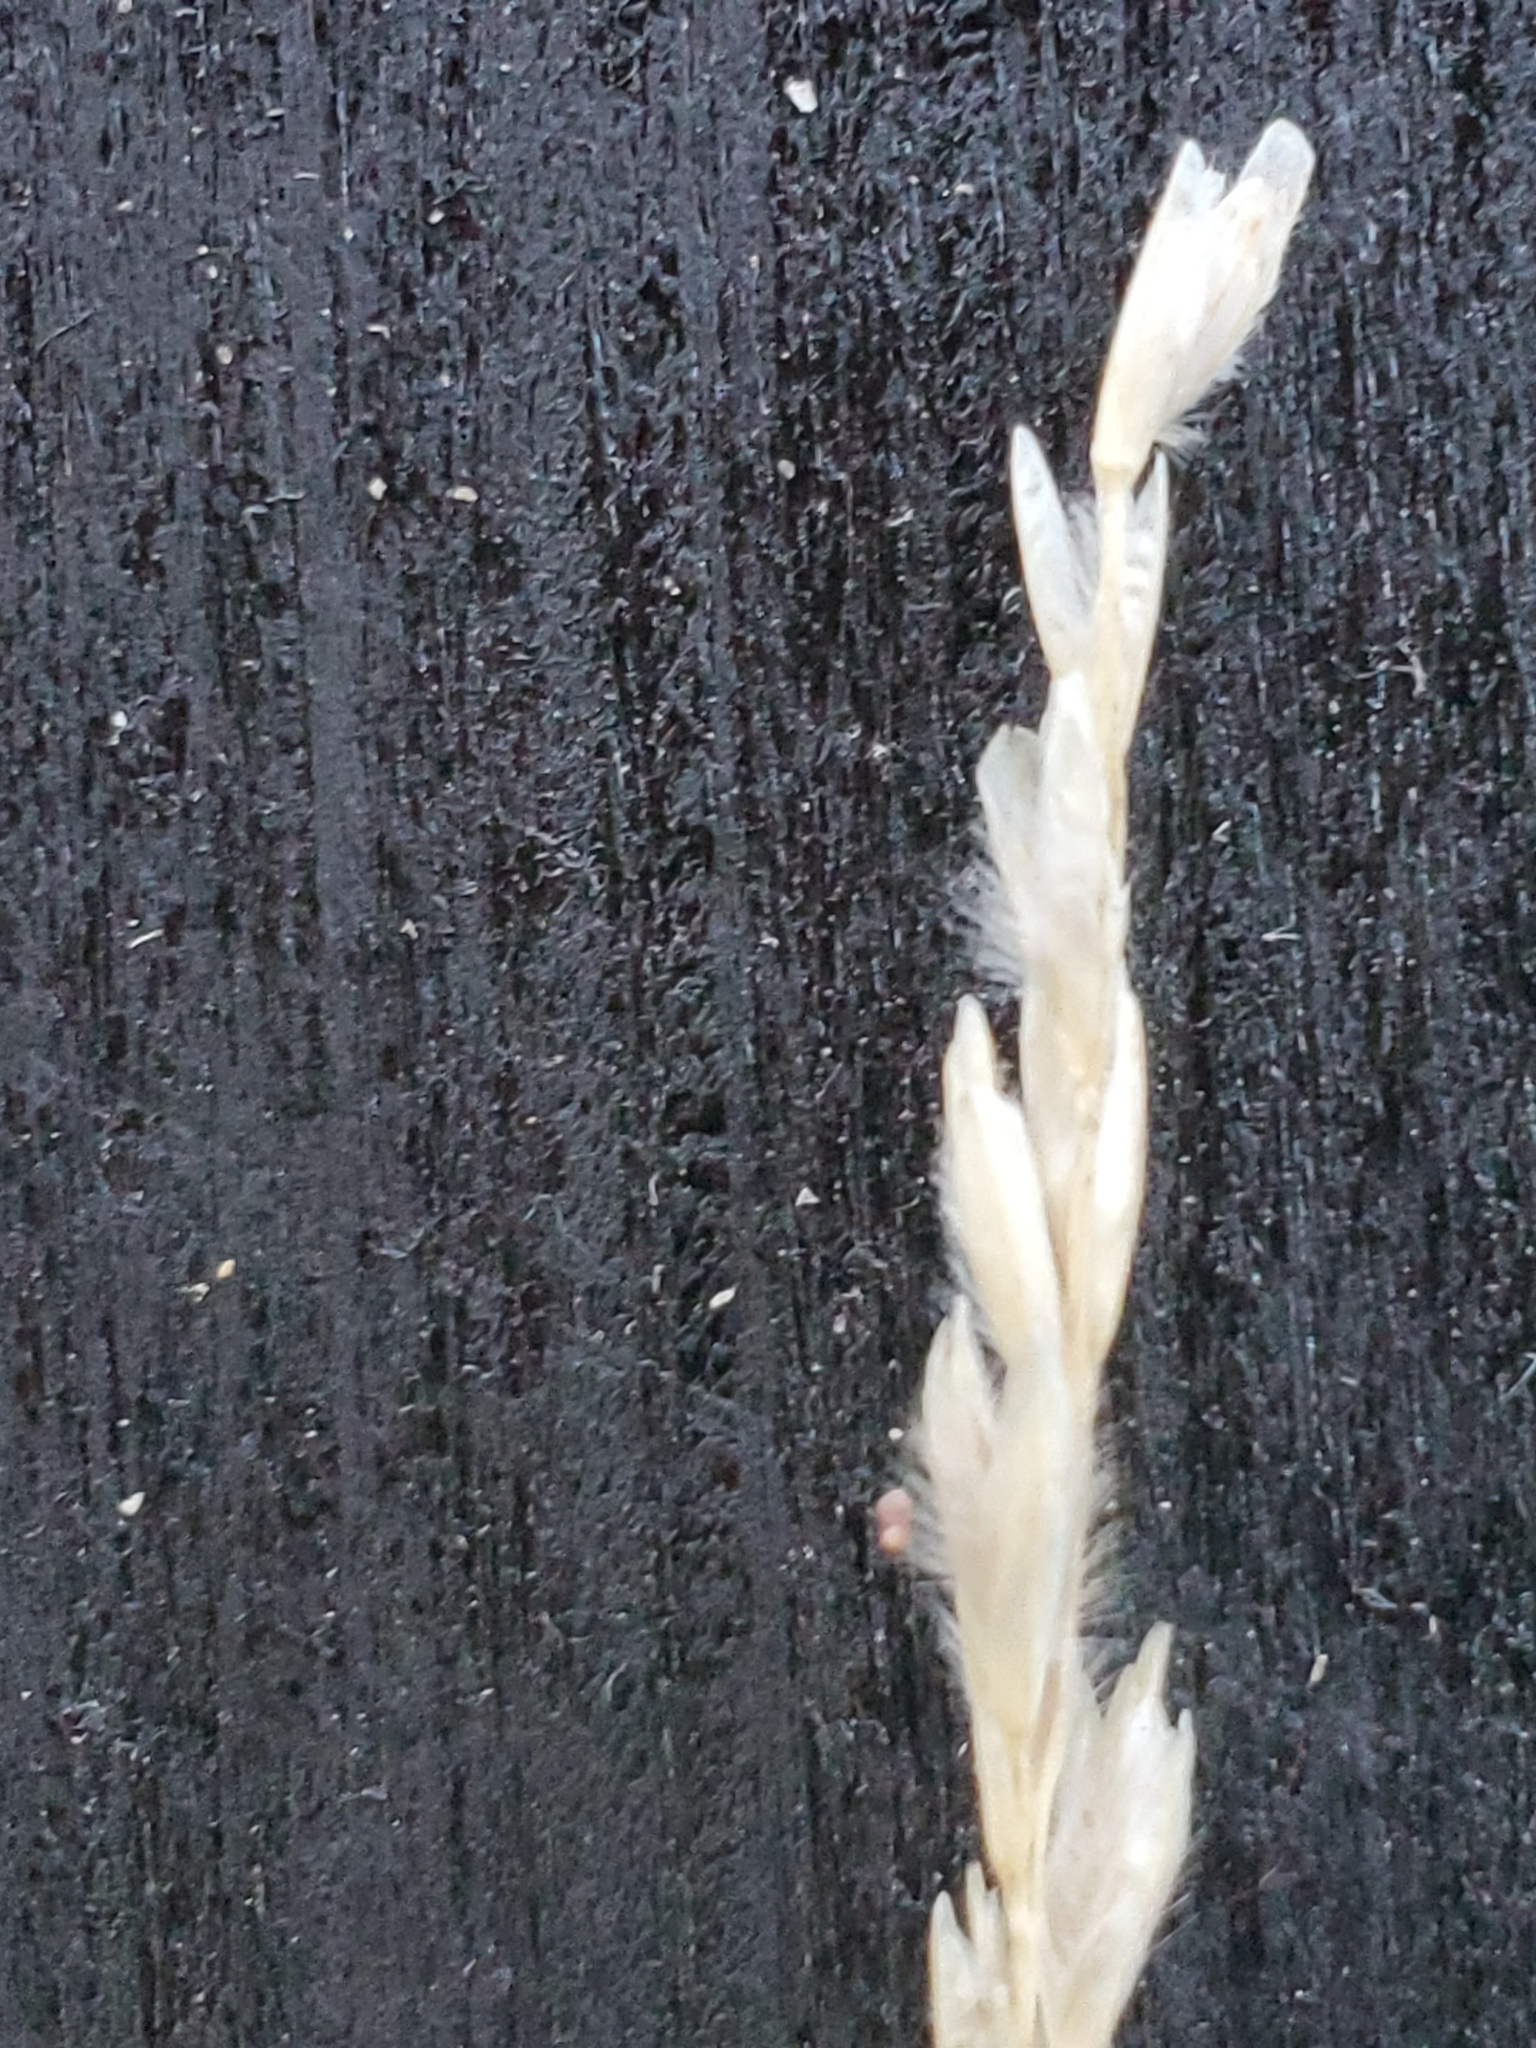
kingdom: Plantae
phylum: Tracheophyta
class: Liliopsida
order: Poales
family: Poaceae
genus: Tridentopsis
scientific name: Tridentopsis mutica
